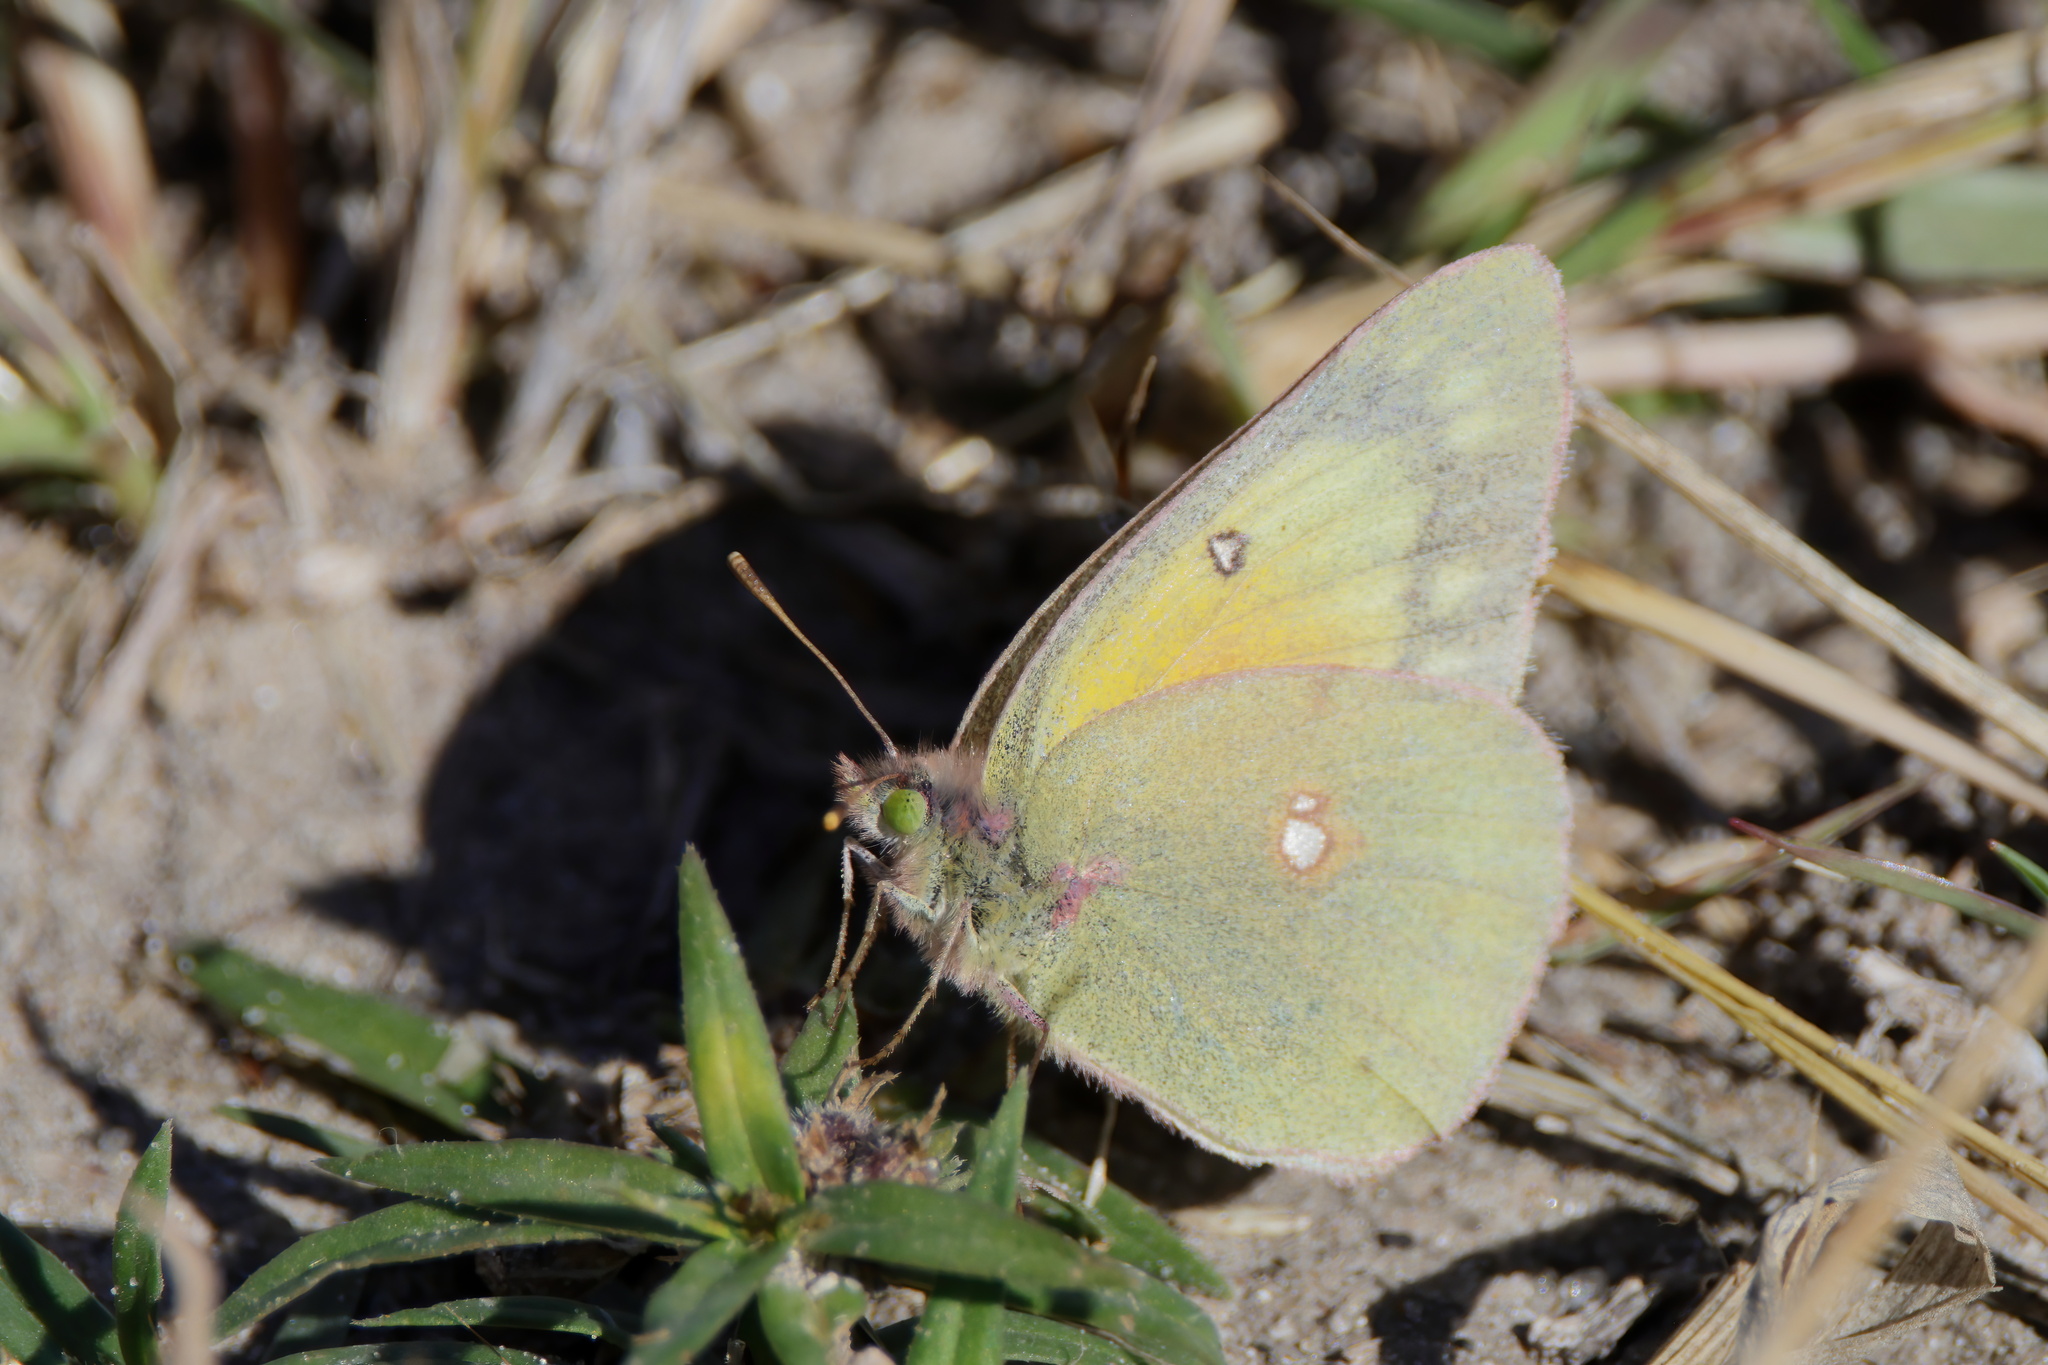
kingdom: Animalia
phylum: Arthropoda
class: Insecta
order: Lepidoptera
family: Pieridae
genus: Colias
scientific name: Colias eurytheme
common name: Alfalfa butterfly
